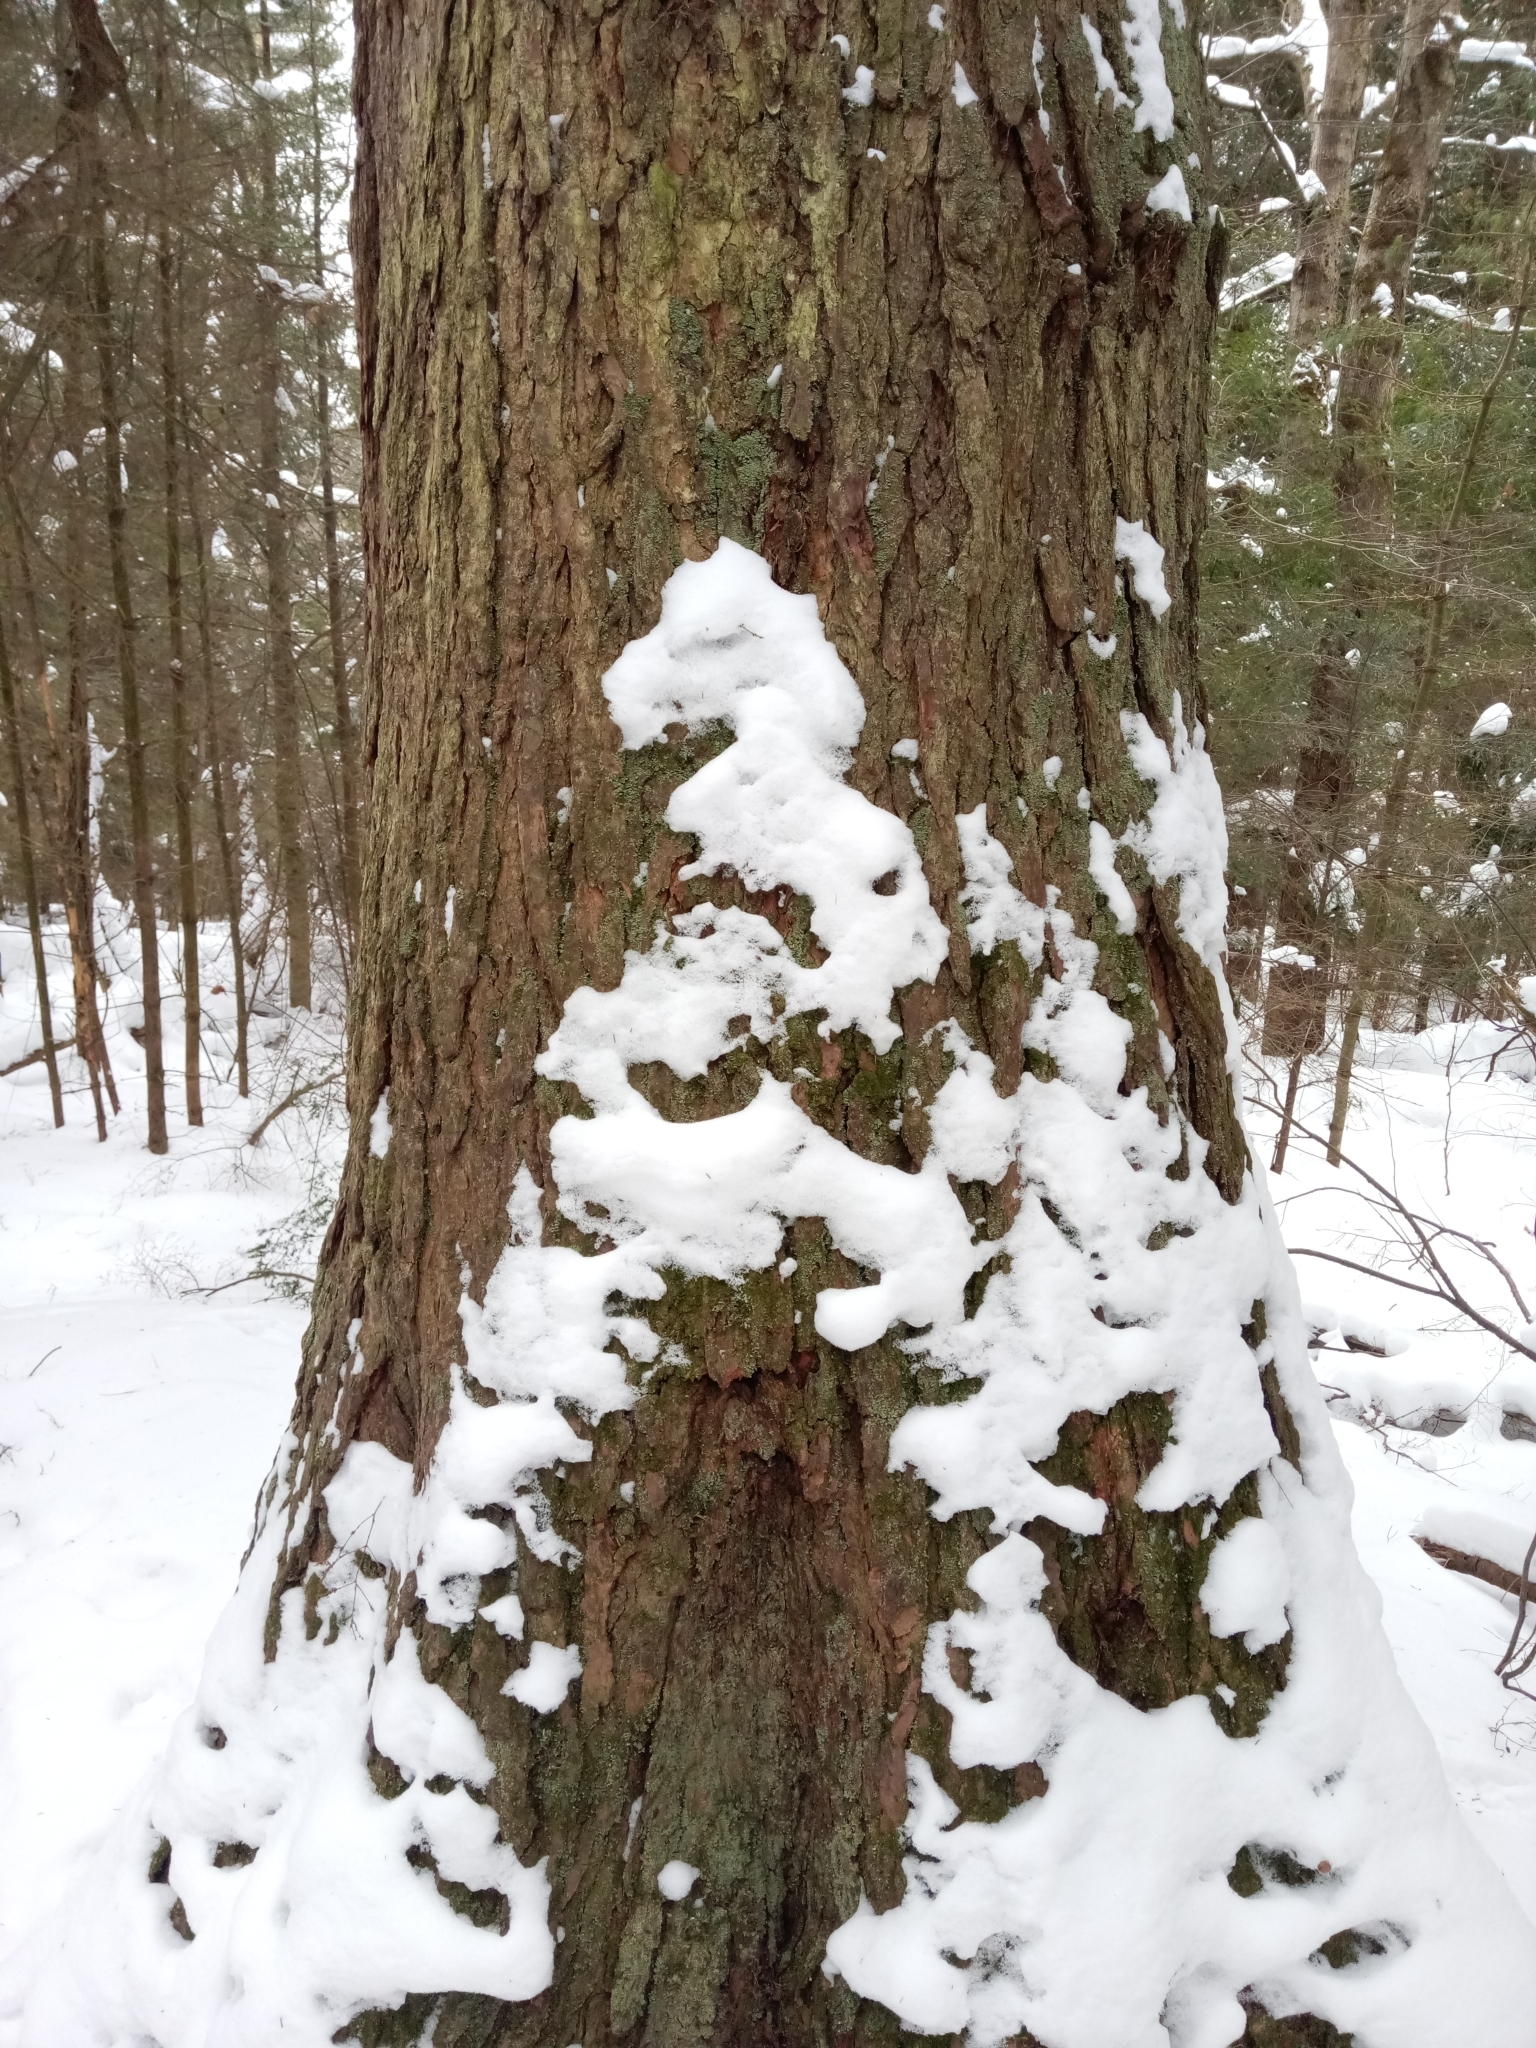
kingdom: Plantae
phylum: Tracheophyta
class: Pinopsida
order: Pinales
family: Pinaceae
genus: Tsuga
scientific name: Tsuga canadensis
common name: Eastern hemlock
